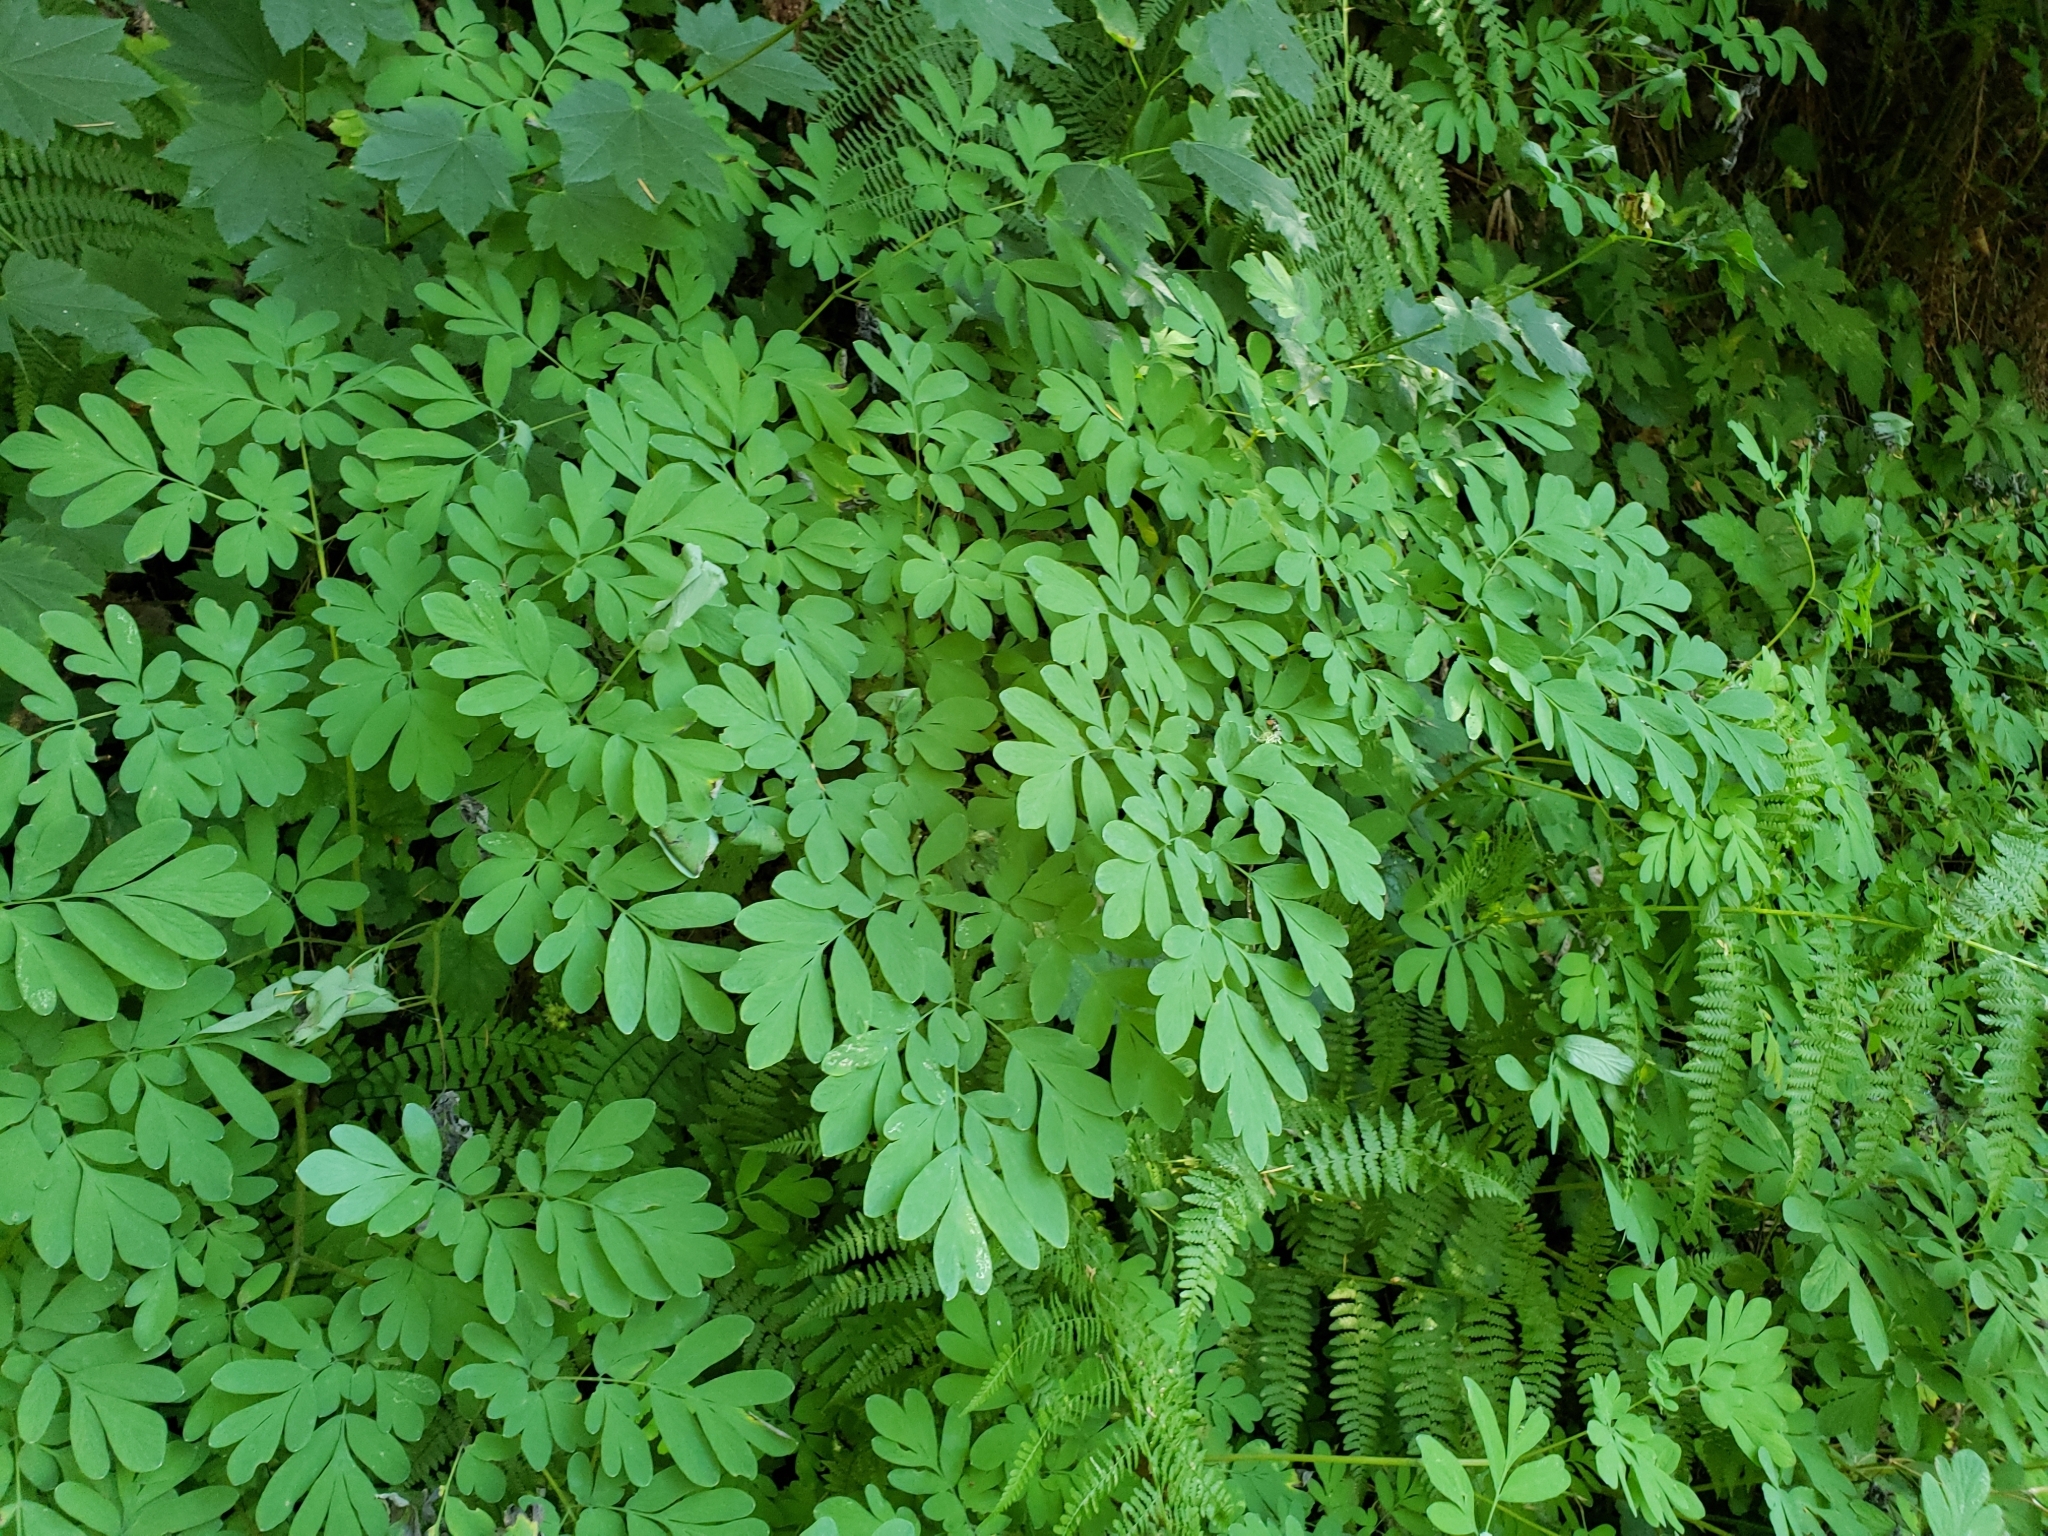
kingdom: Plantae
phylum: Tracheophyta
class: Magnoliopsida
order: Ranunculales
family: Papaveraceae
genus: Corydalis
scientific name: Corydalis scouleri
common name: Scouler's corydalis
